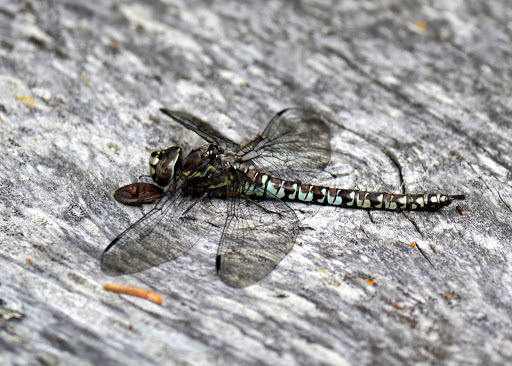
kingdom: Animalia
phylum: Arthropoda
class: Insecta
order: Odonata
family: Aeshnidae
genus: Aeshna
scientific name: Aeshna sitchensis
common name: Zigzag darner
